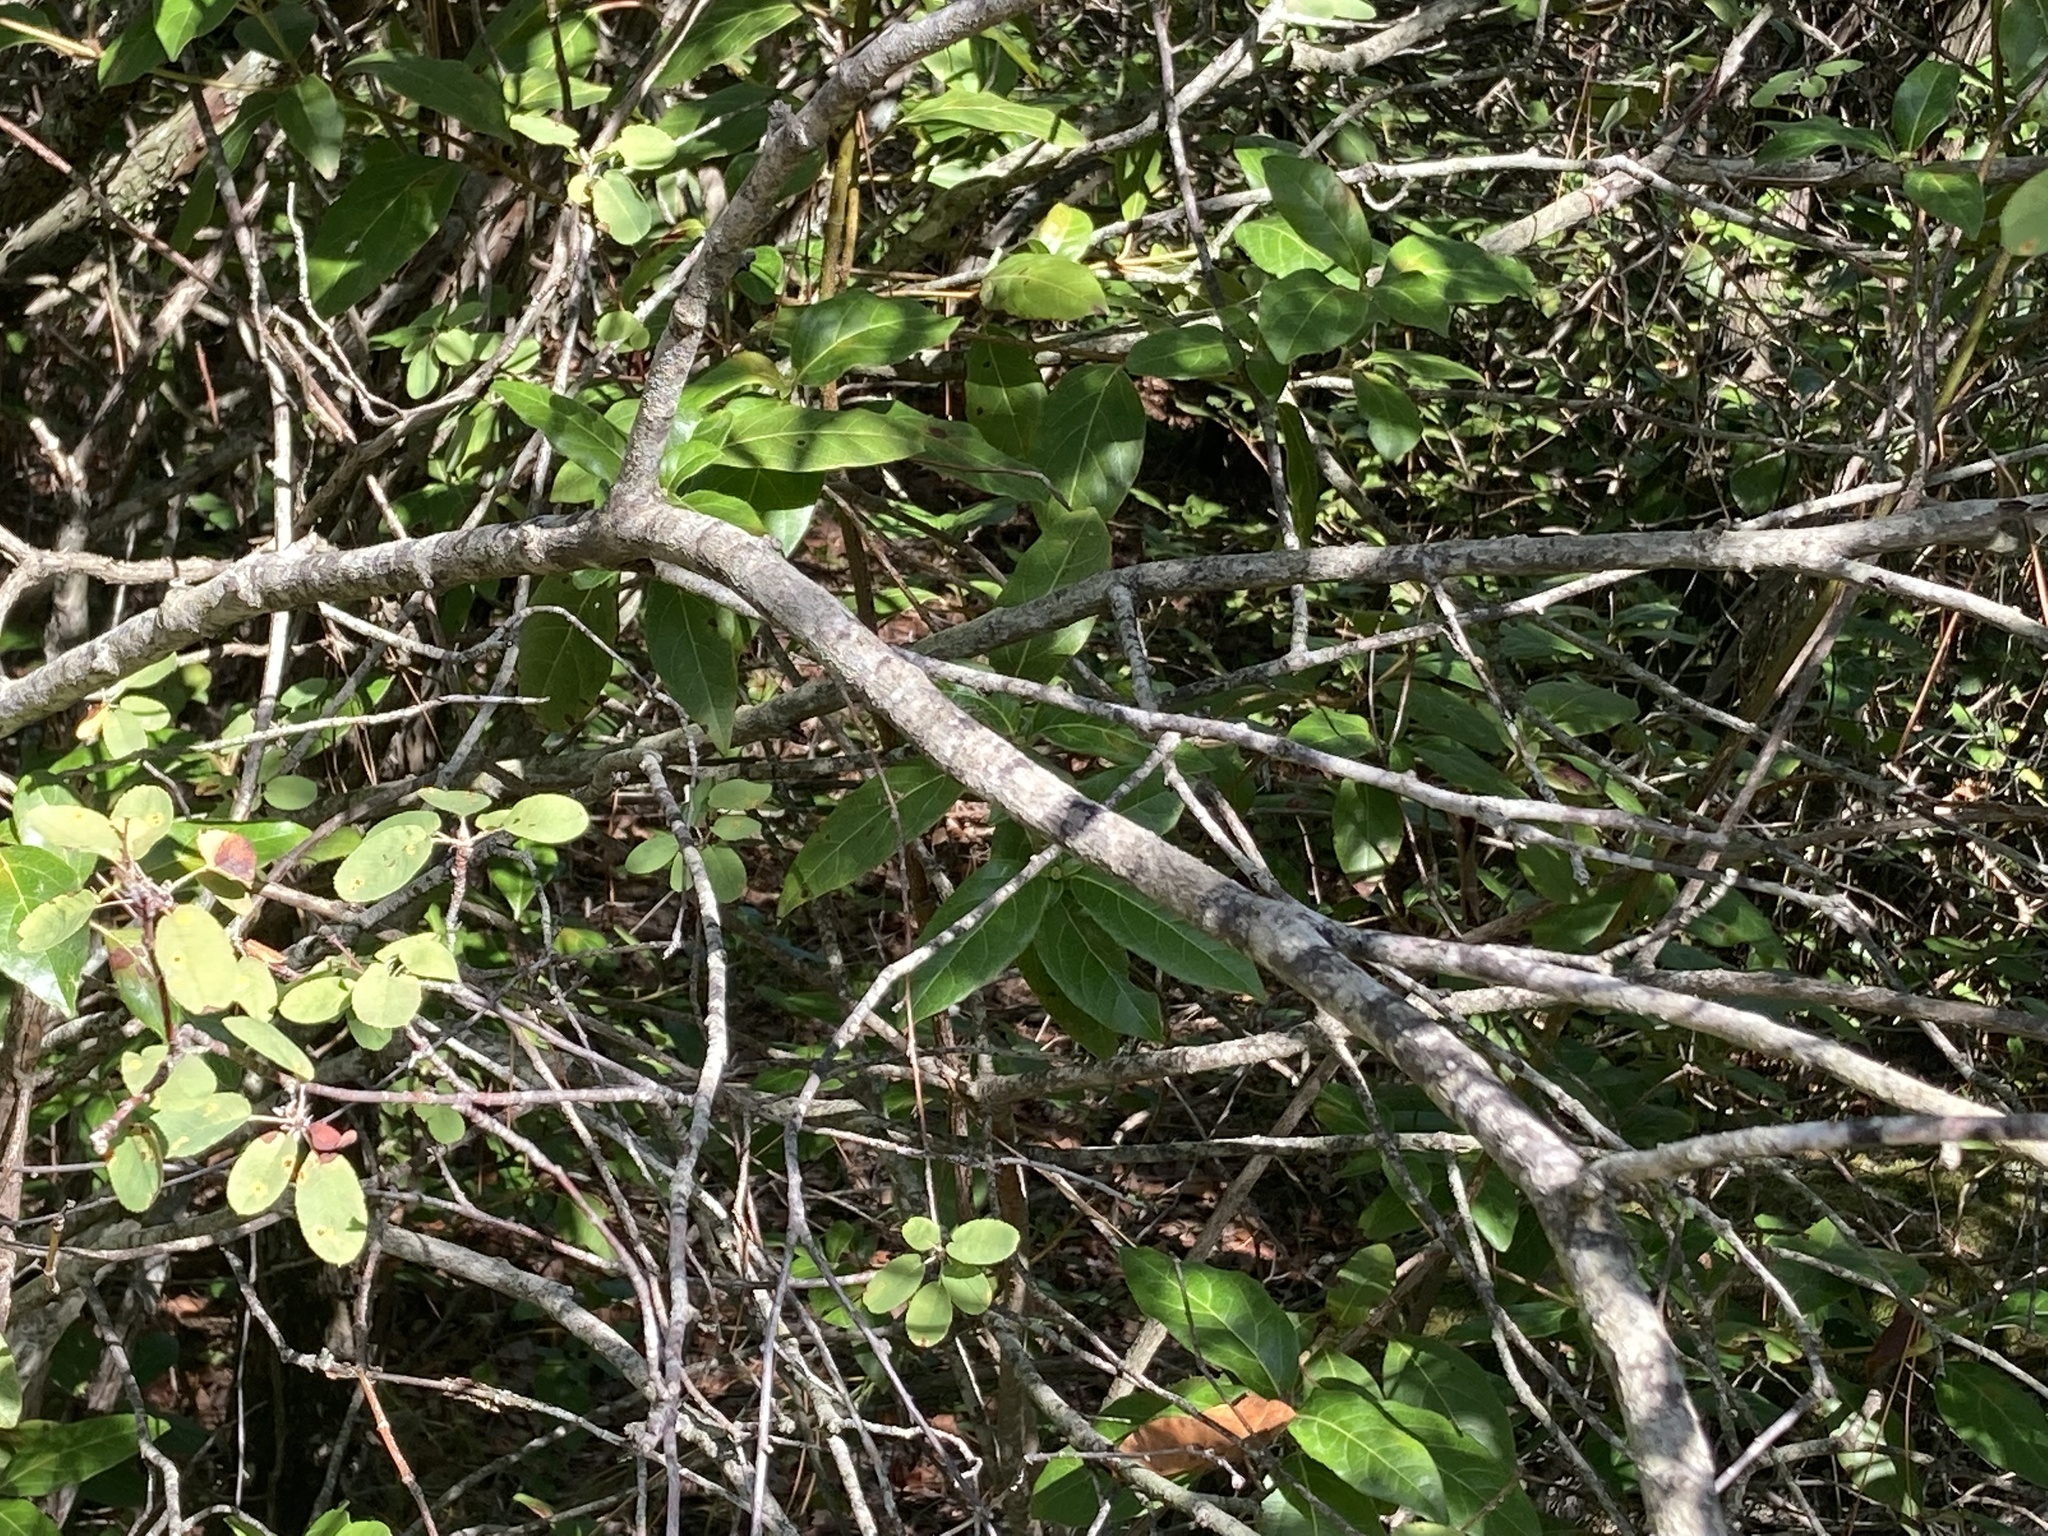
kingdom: Plantae
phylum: Tracheophyta
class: Magnoliopsida
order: Rosales
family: Rosaceae
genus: Amelanchier
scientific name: Amelanchier ovalis
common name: Serviceberry
